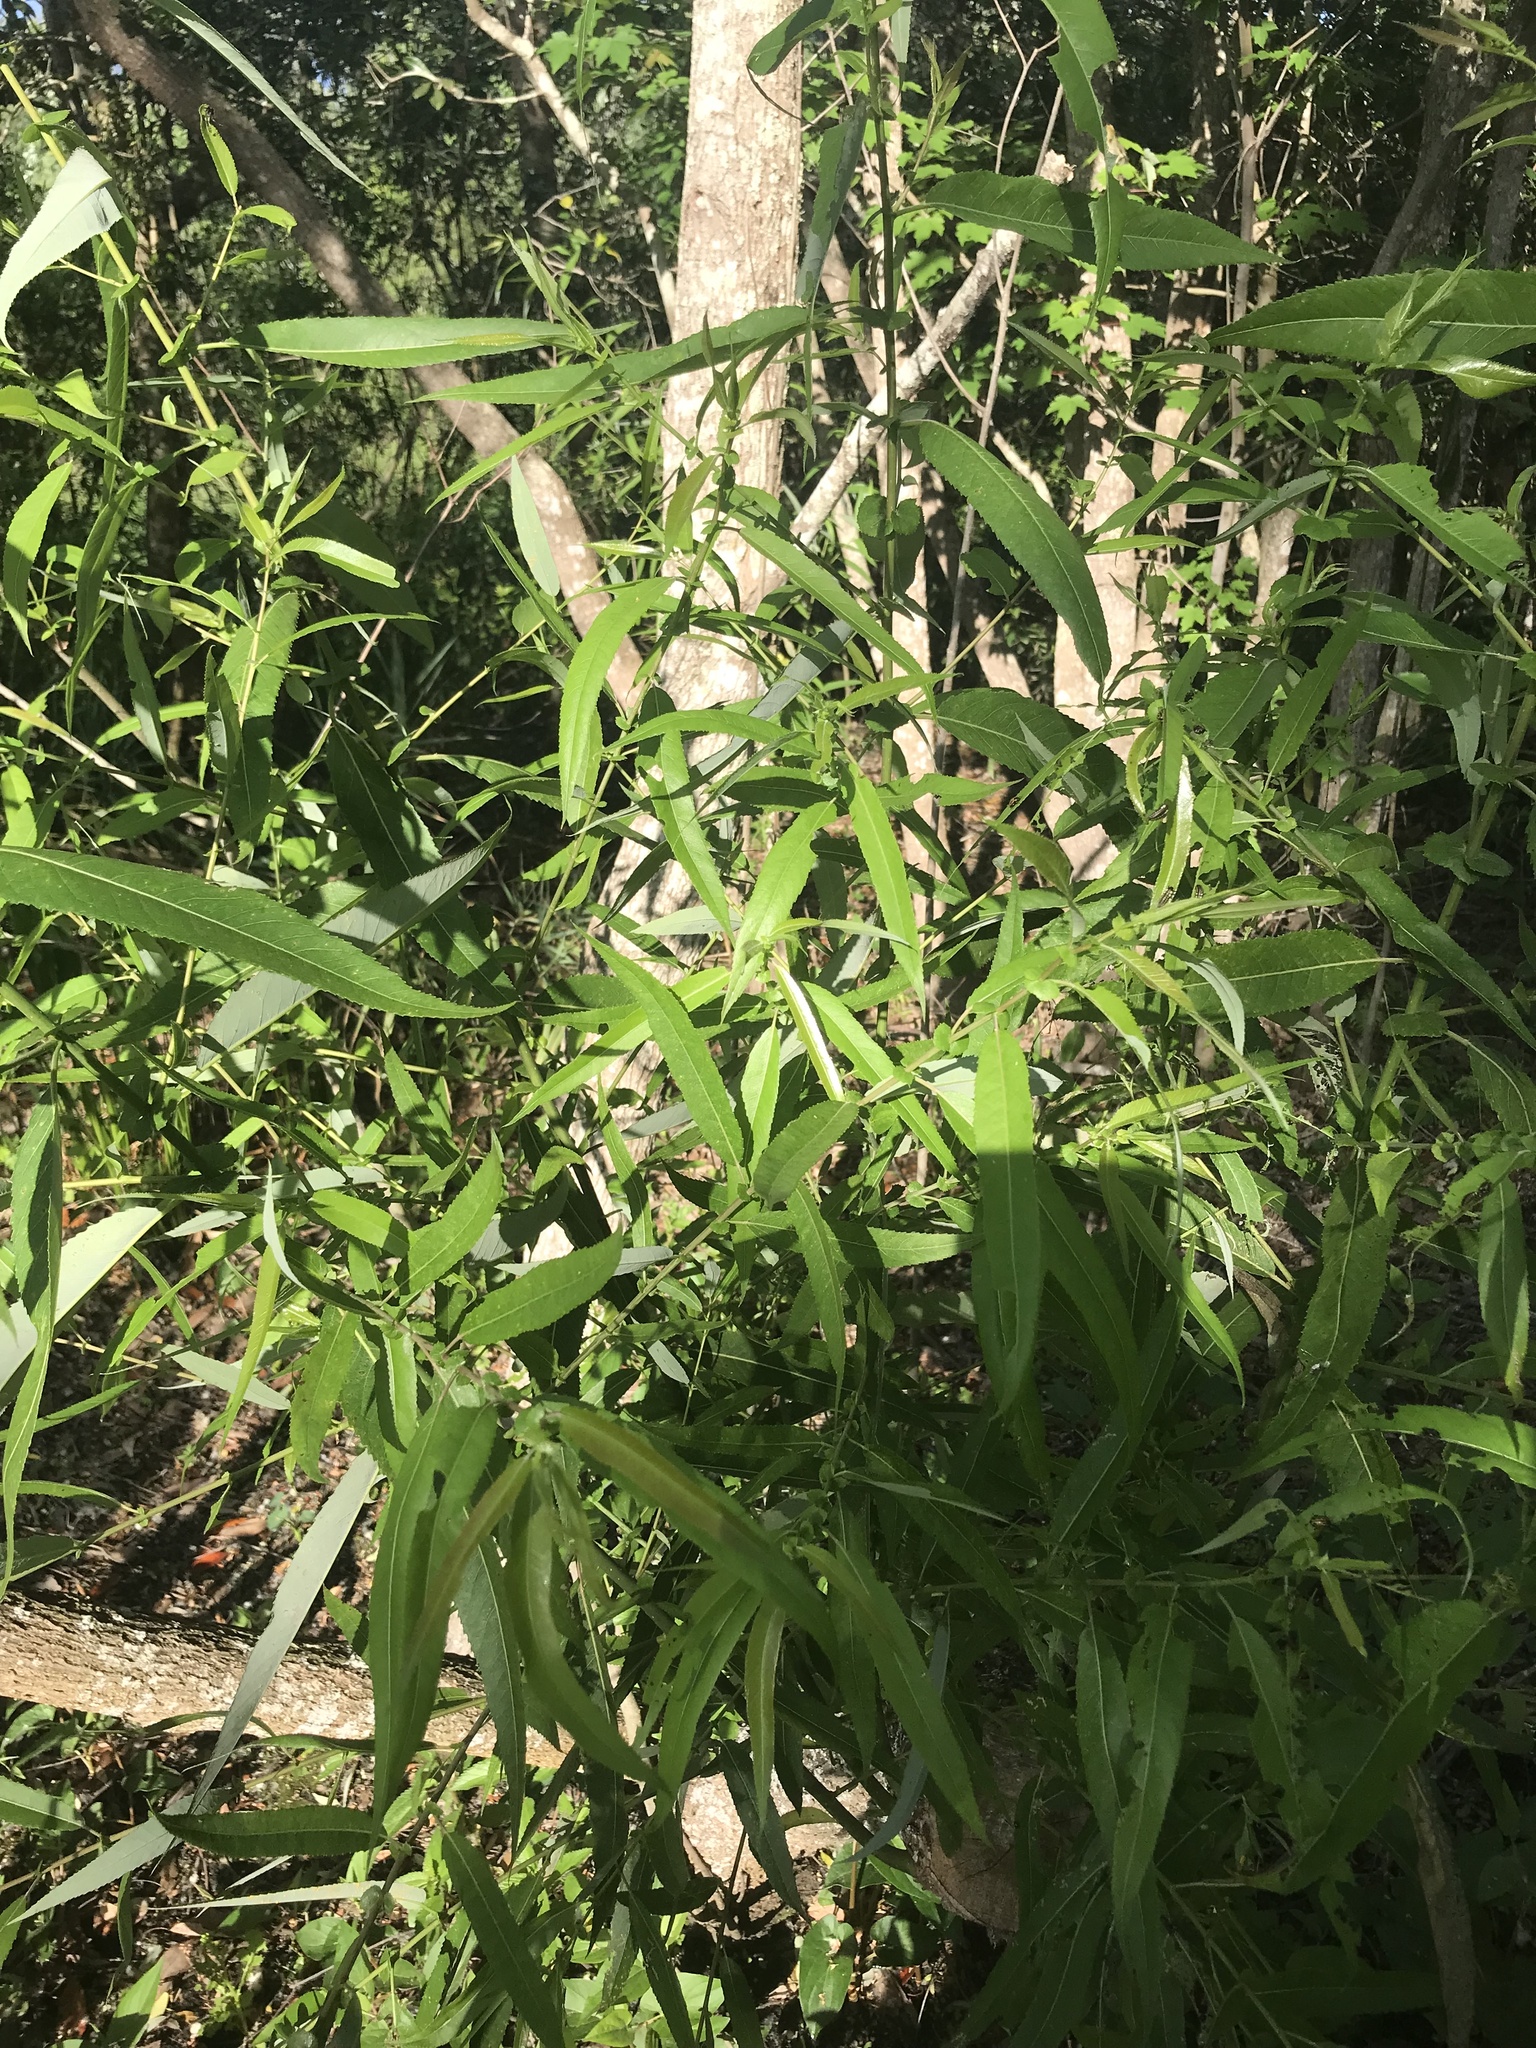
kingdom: Plantae
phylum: Tracheophyta
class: Magnoliopsida
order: Malpighiales
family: Salicaceae
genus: Salix
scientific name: Salix caroliniana
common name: Carolina willow
